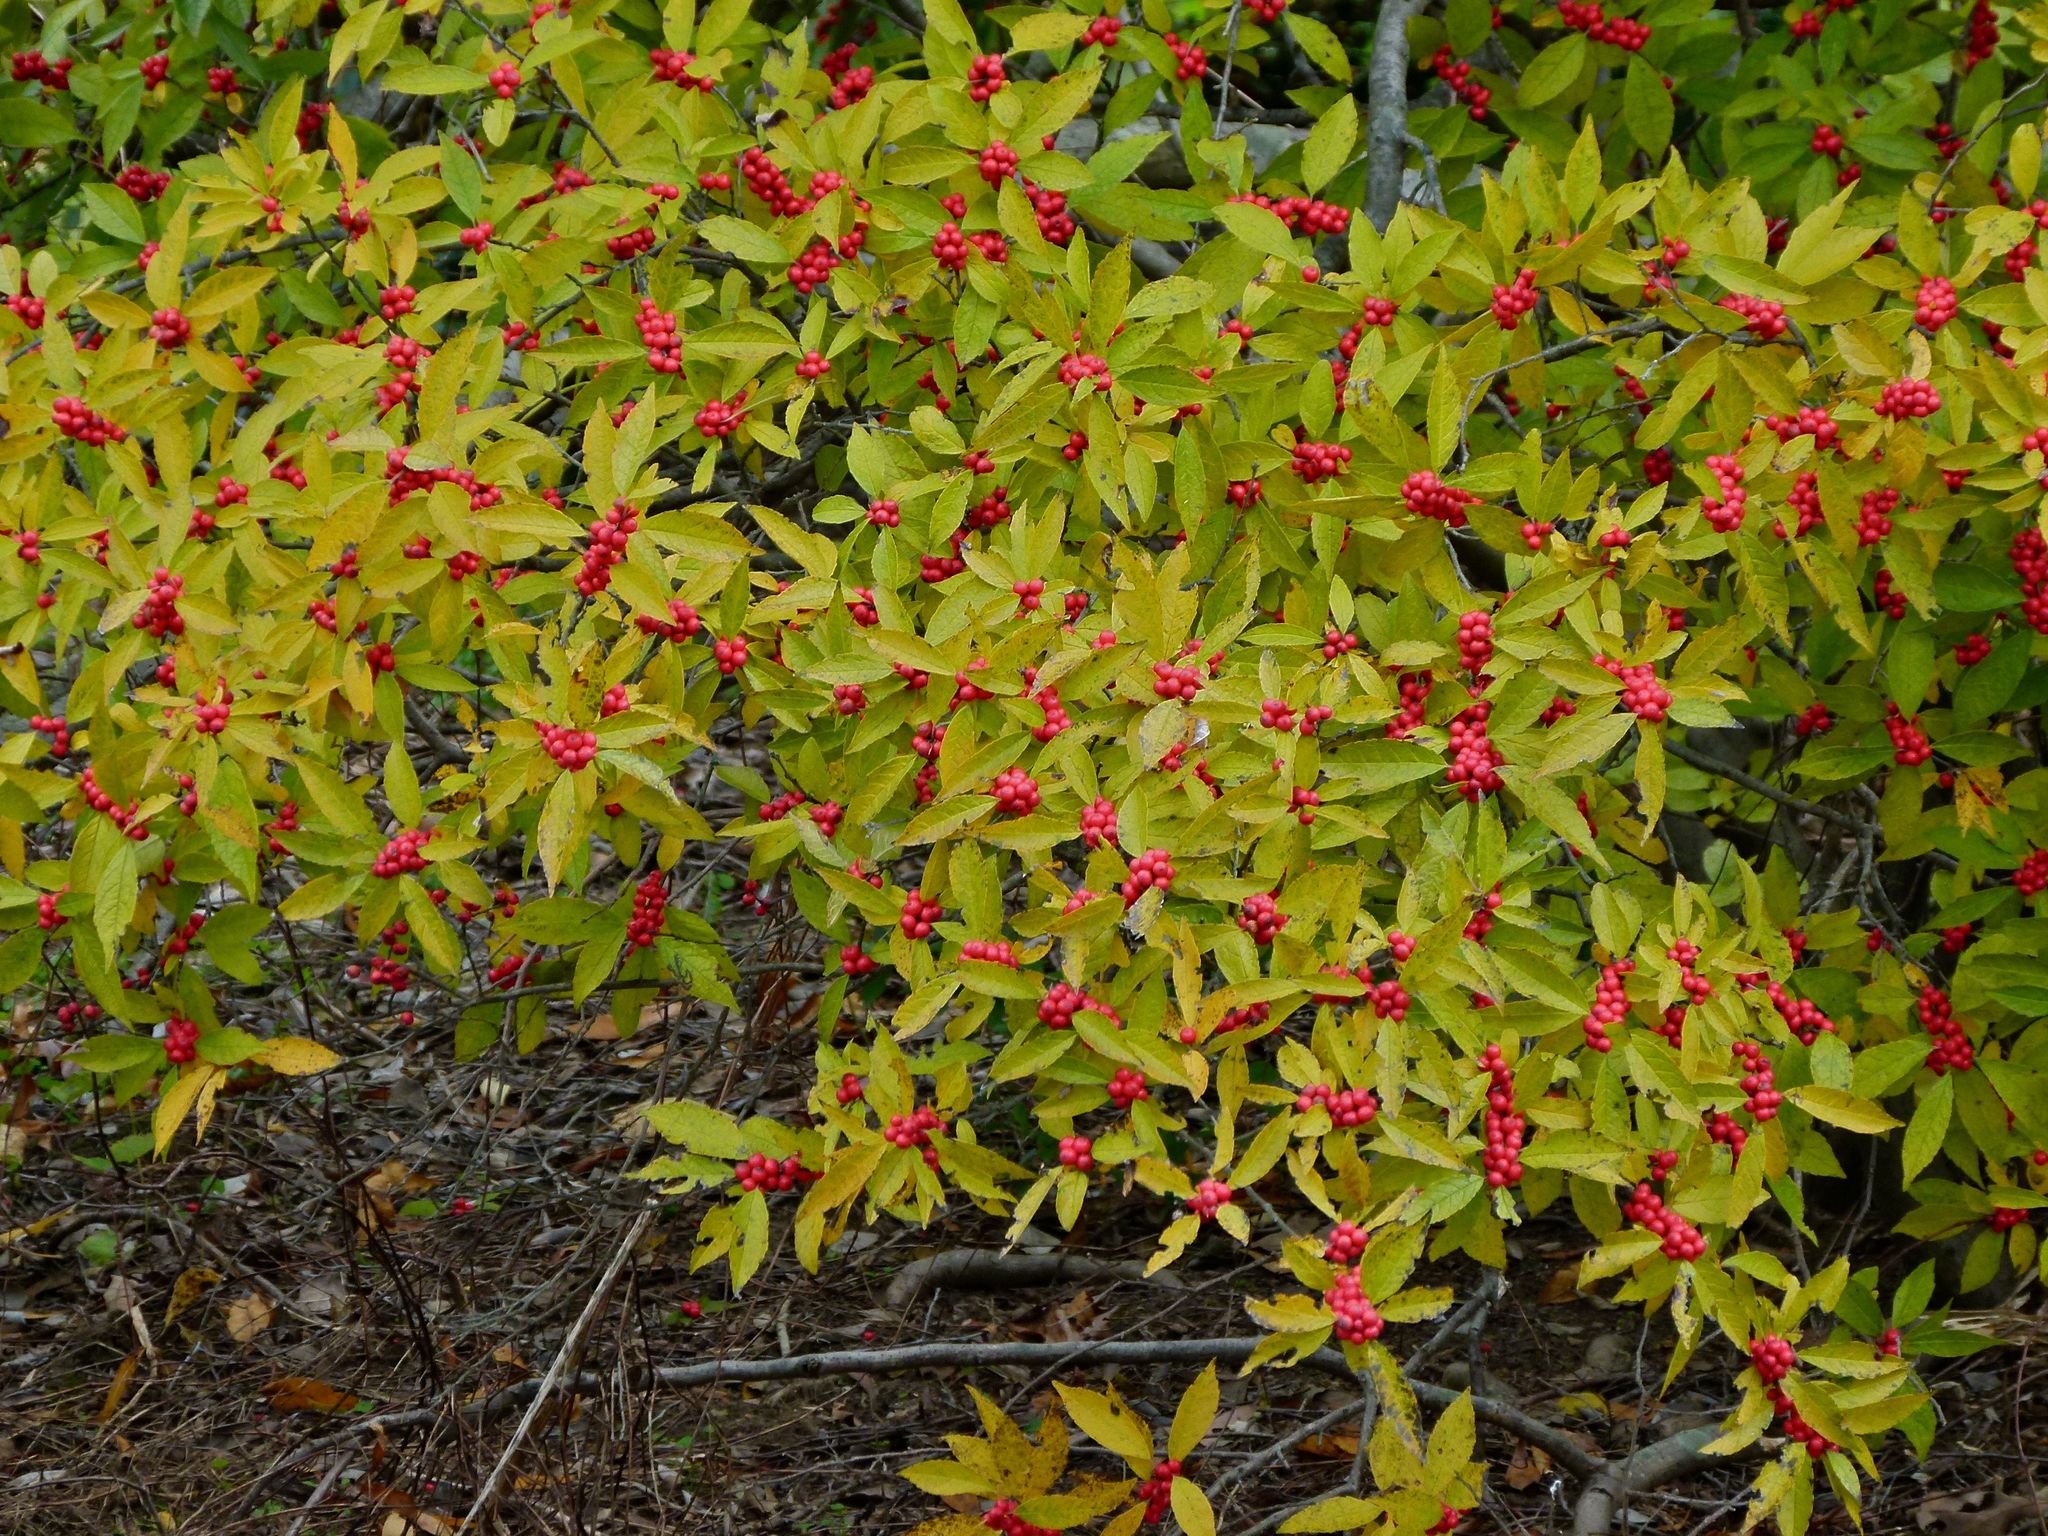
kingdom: Plantae
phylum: Tracheophyta
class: Magnoliopsida
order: Aquifoliales
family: Aquifoliaceae
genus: Ilex
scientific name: Ilex verticillata
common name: Virginia winterberry
